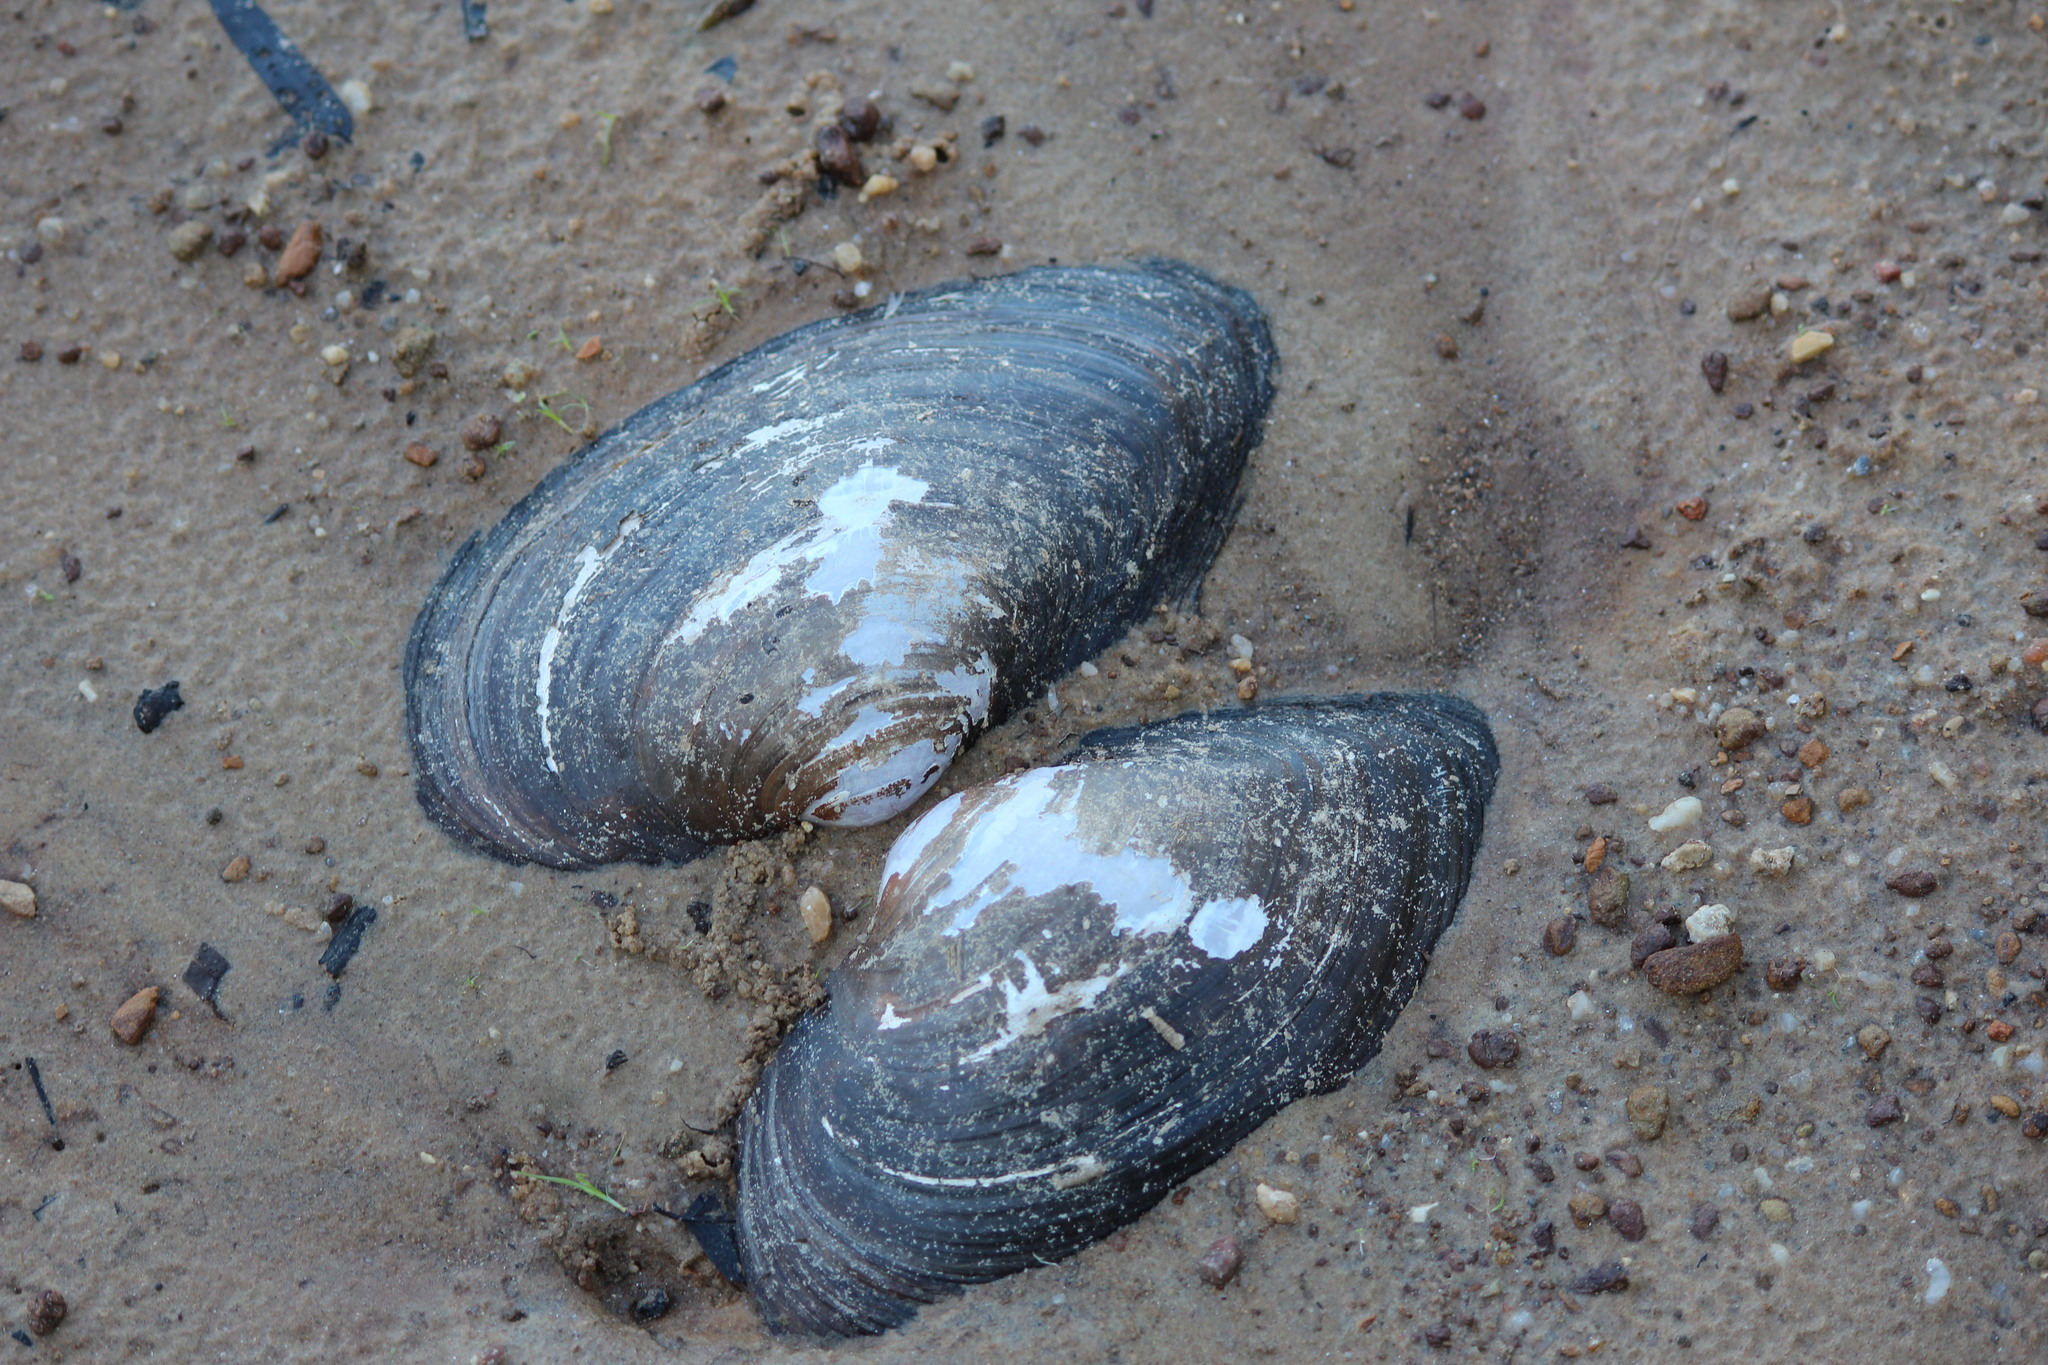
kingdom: Animalia
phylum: Mollusca
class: Bivalvia
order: Unionida
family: Unionidae
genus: Pyganodon
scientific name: Pyganodon grandis
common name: Giant floater
